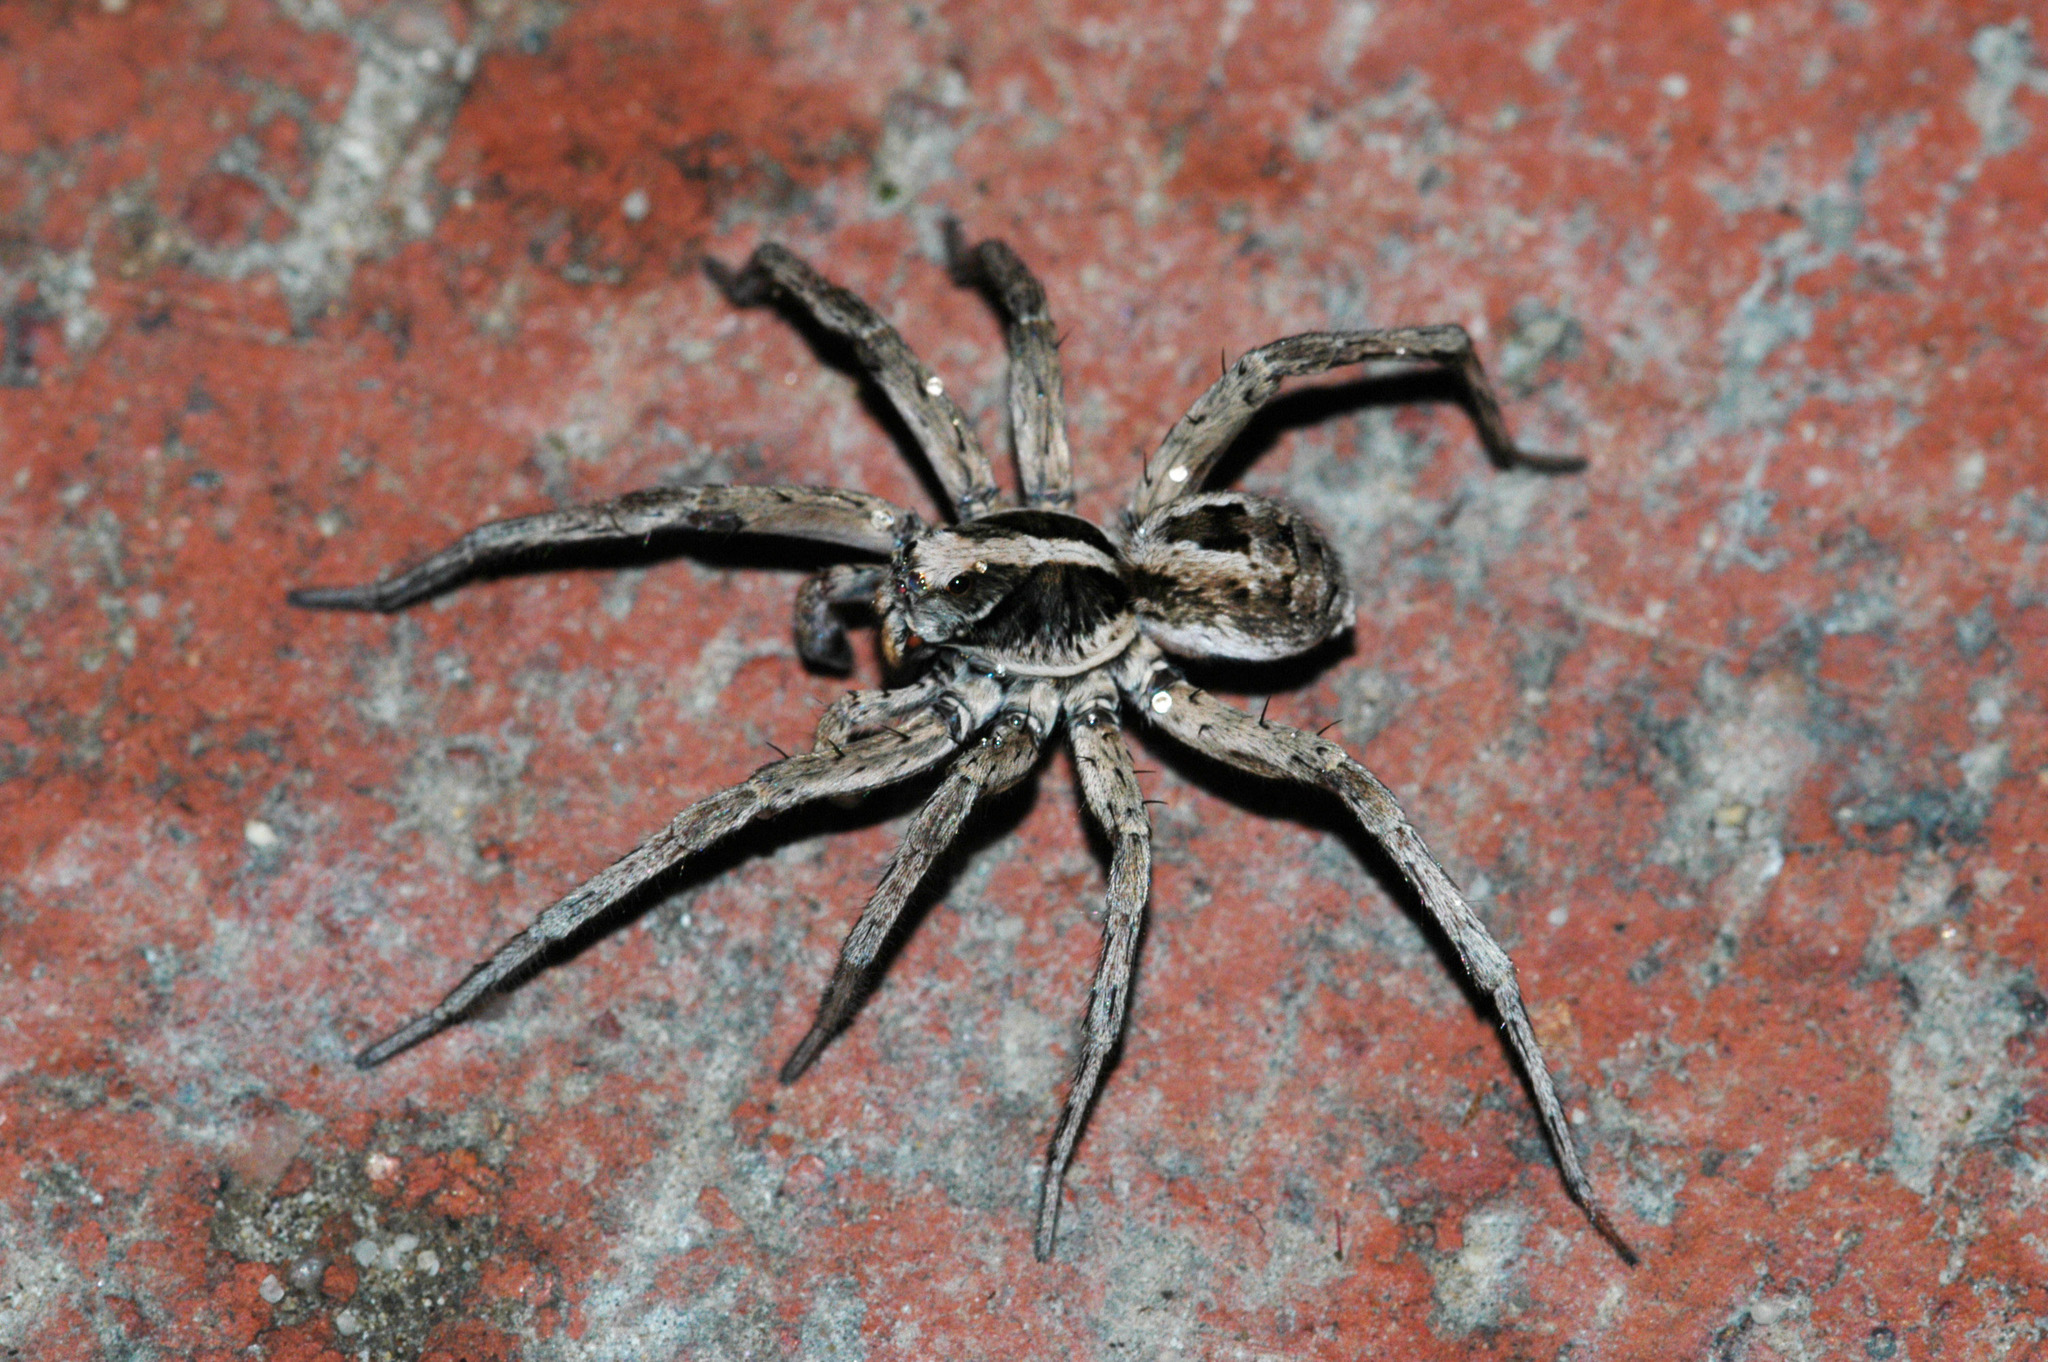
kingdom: Animalia
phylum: Arthropoda
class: Arachnida
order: Araneae
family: Lycosidae
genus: Venator
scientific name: Venator spenceri
